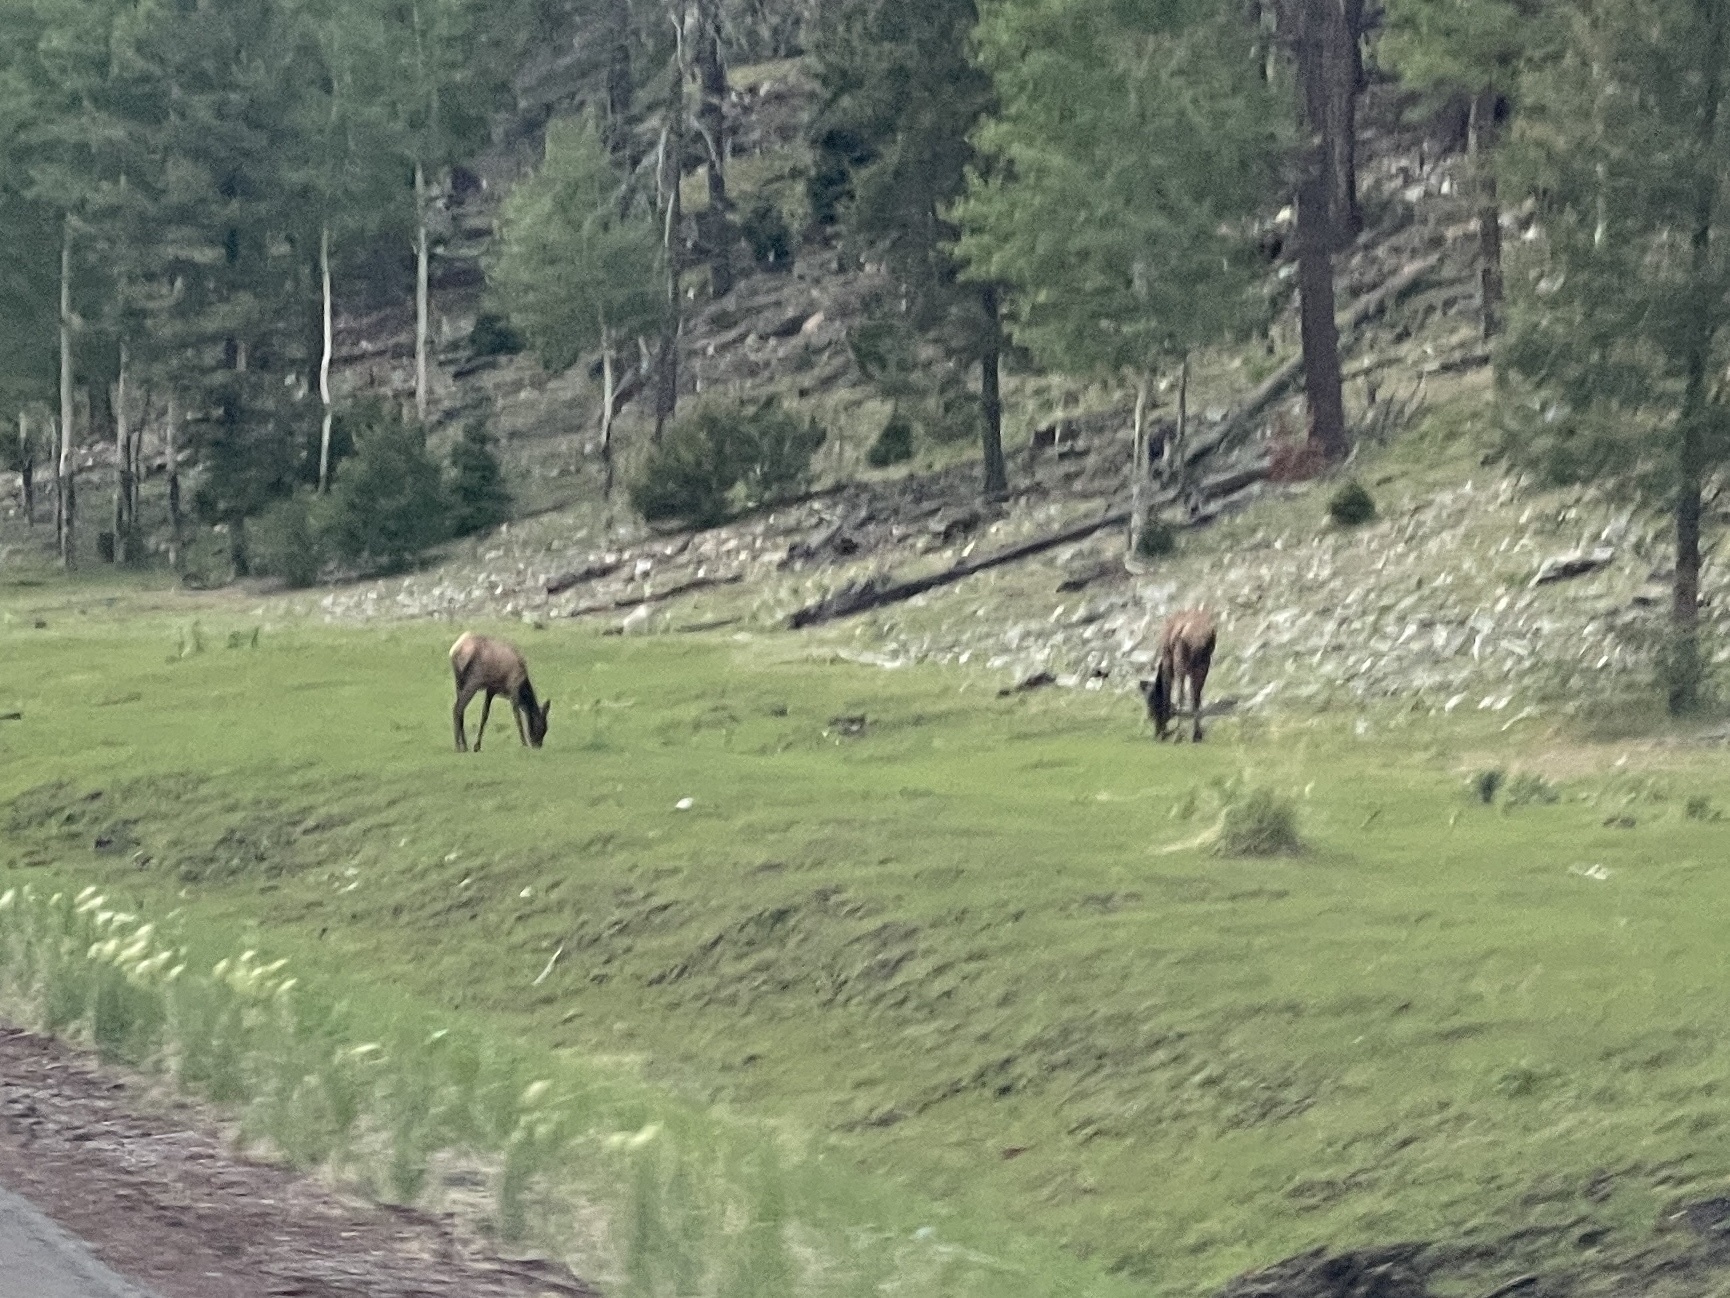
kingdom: Animalia
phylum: Chordata
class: Mammalia
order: Artiodactyla
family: Cervidae
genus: Cervus
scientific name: Cervus elaphus
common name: Red deer
